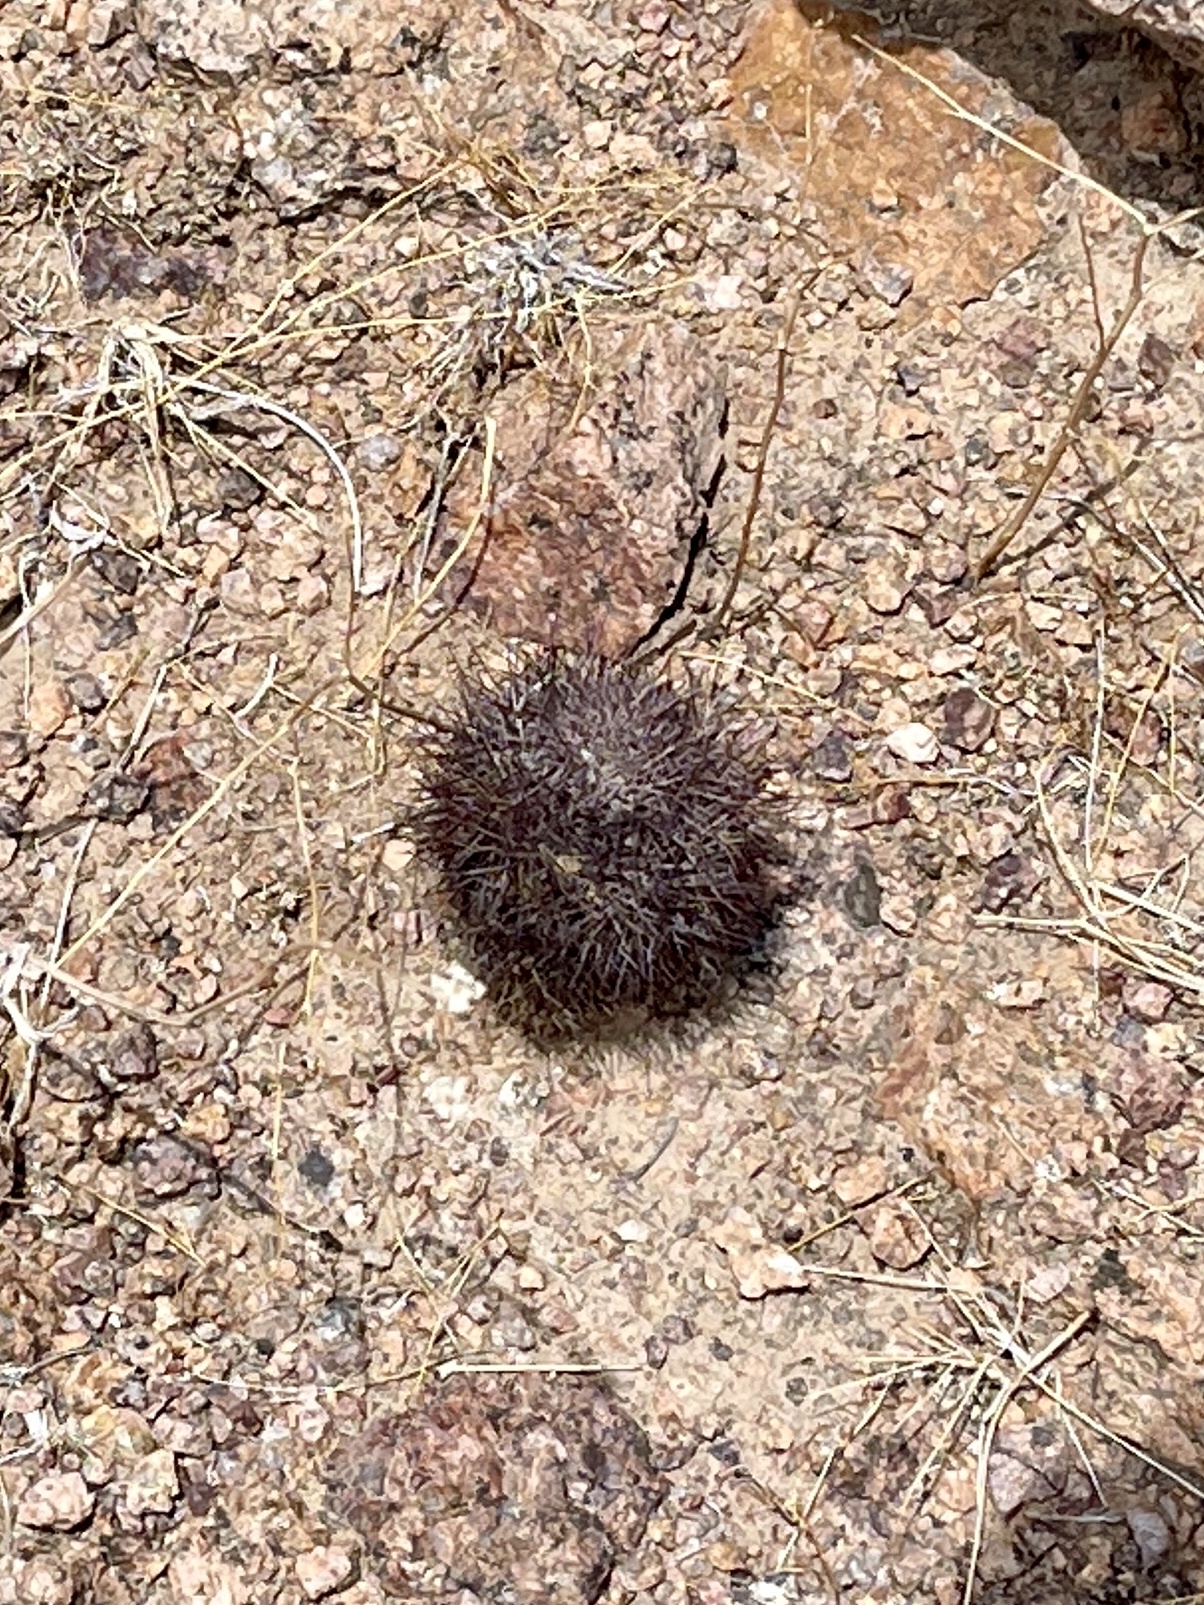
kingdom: Plantae
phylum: Tracheophyta
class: Magnoliopsida
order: Caryophyllales
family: Cactaceae
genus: Sclerocactus
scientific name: Sclerocactus intertextus
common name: White fish-hook cactus
